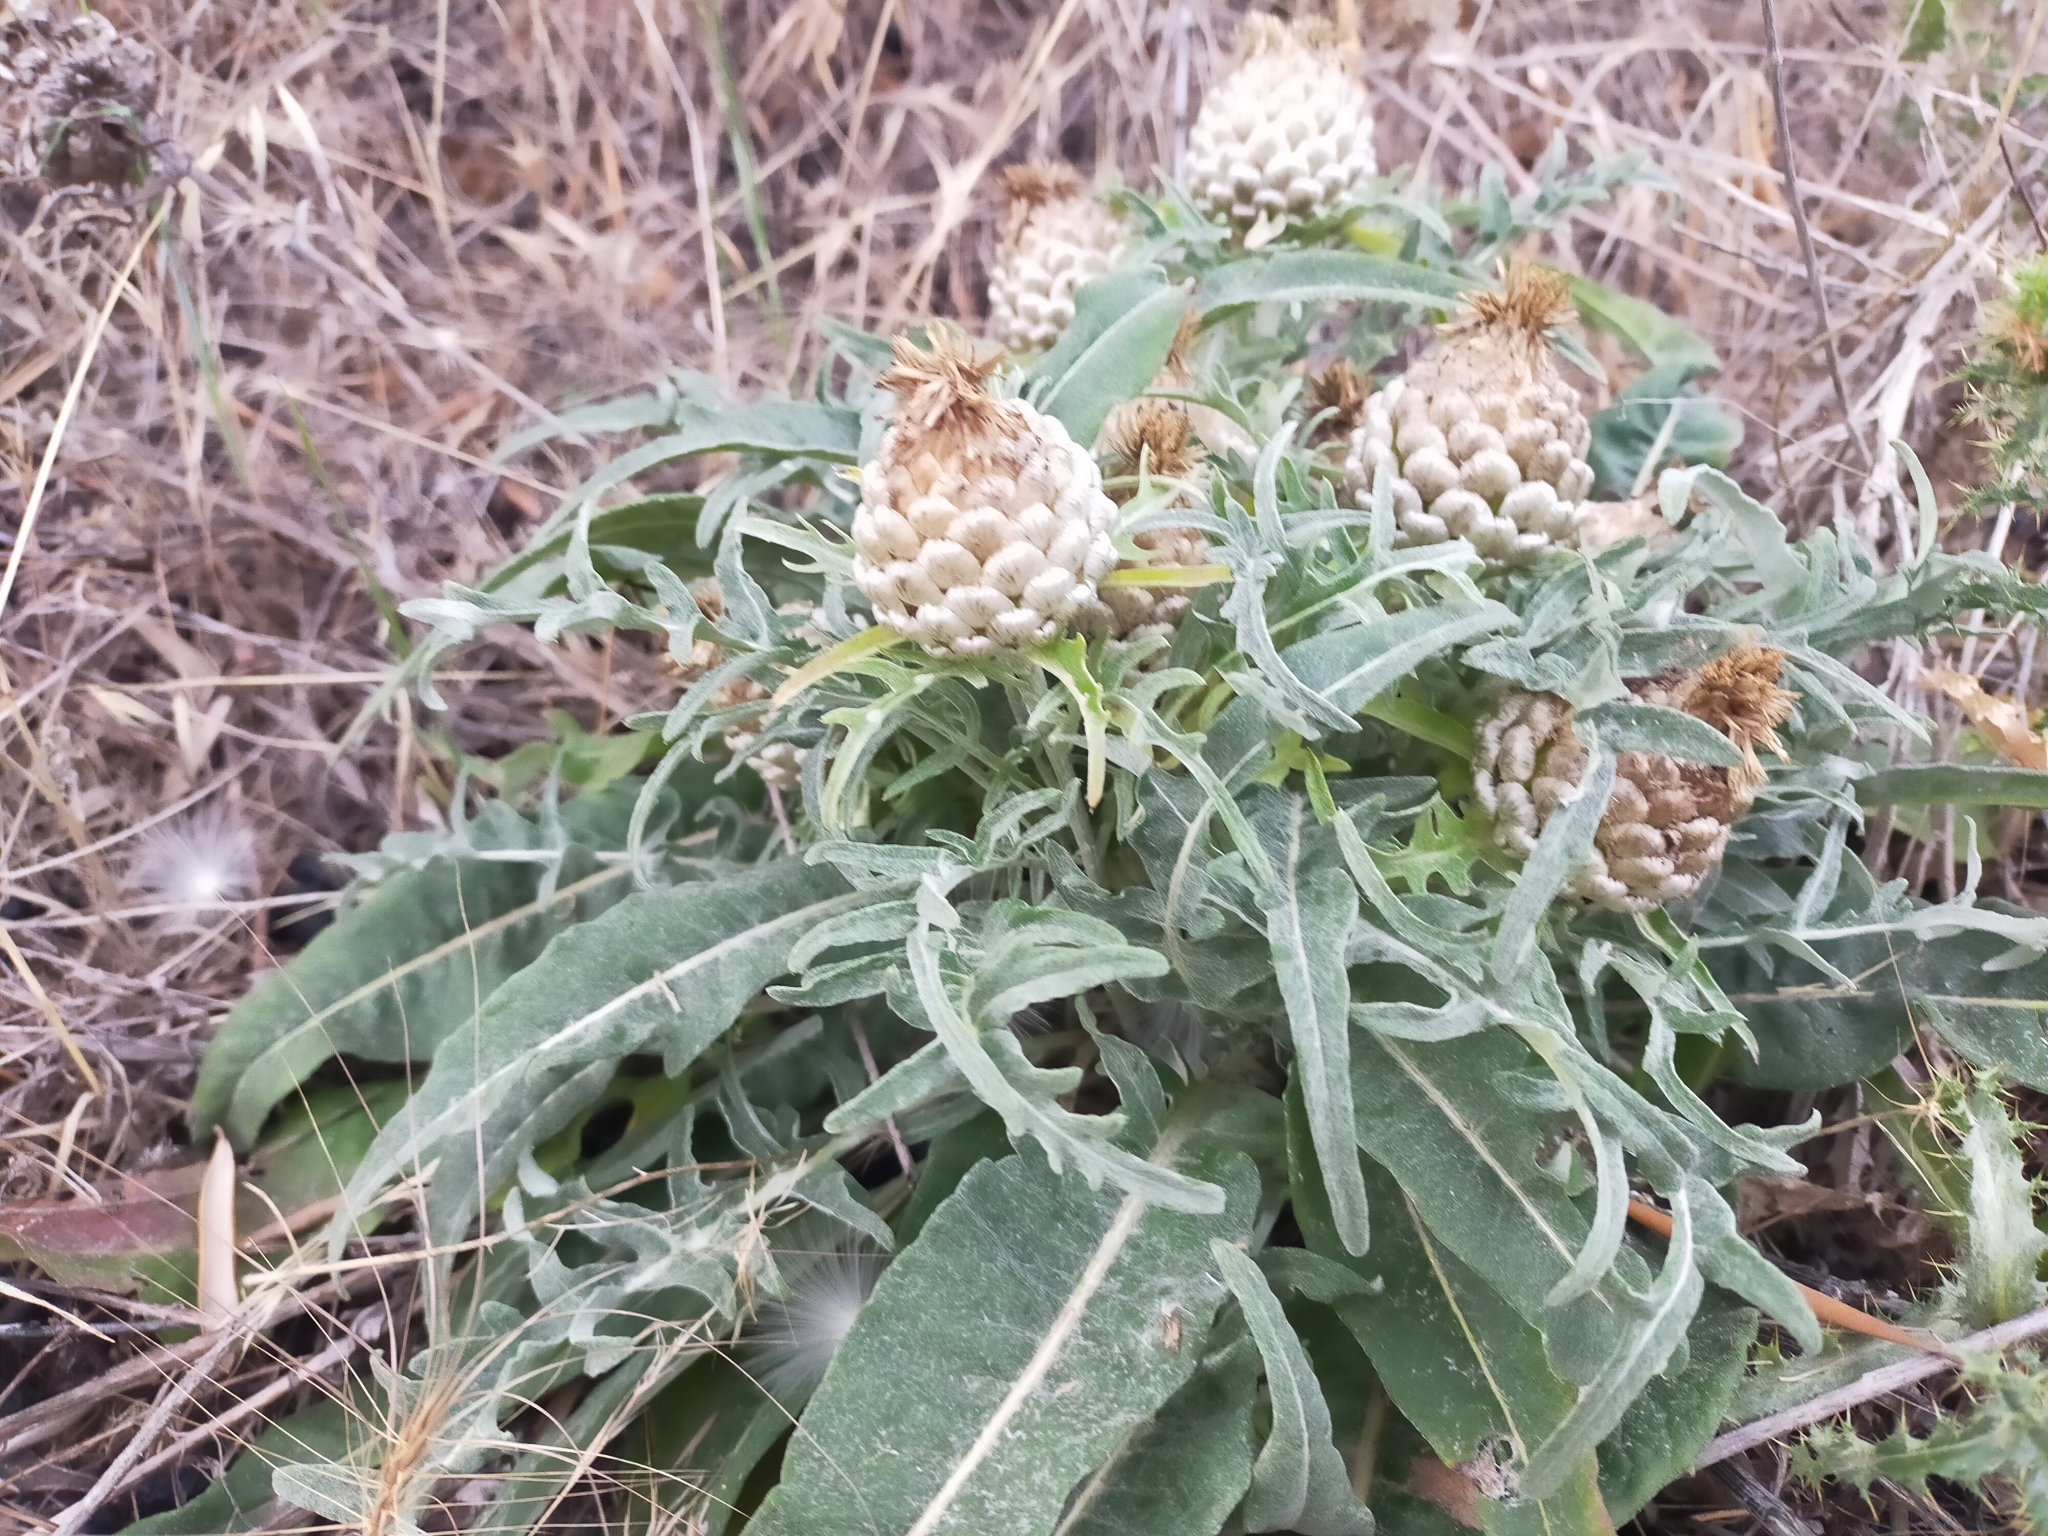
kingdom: Plantae
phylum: Tracheophyta
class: Magnoliopsida
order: Asterales
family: Asteraceae
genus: Leuzea
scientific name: Leuzea conifera
